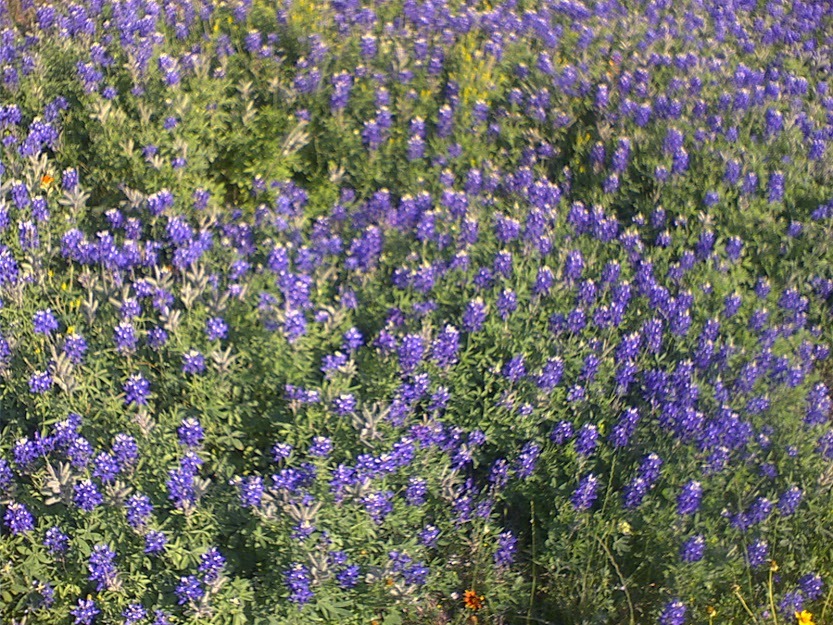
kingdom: Plantae
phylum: Tracheophyta
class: Magnoliopsida
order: Fabales
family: Fabaceae
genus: Lupinus
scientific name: Lupinus texensis
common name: Texas bluebonnet
